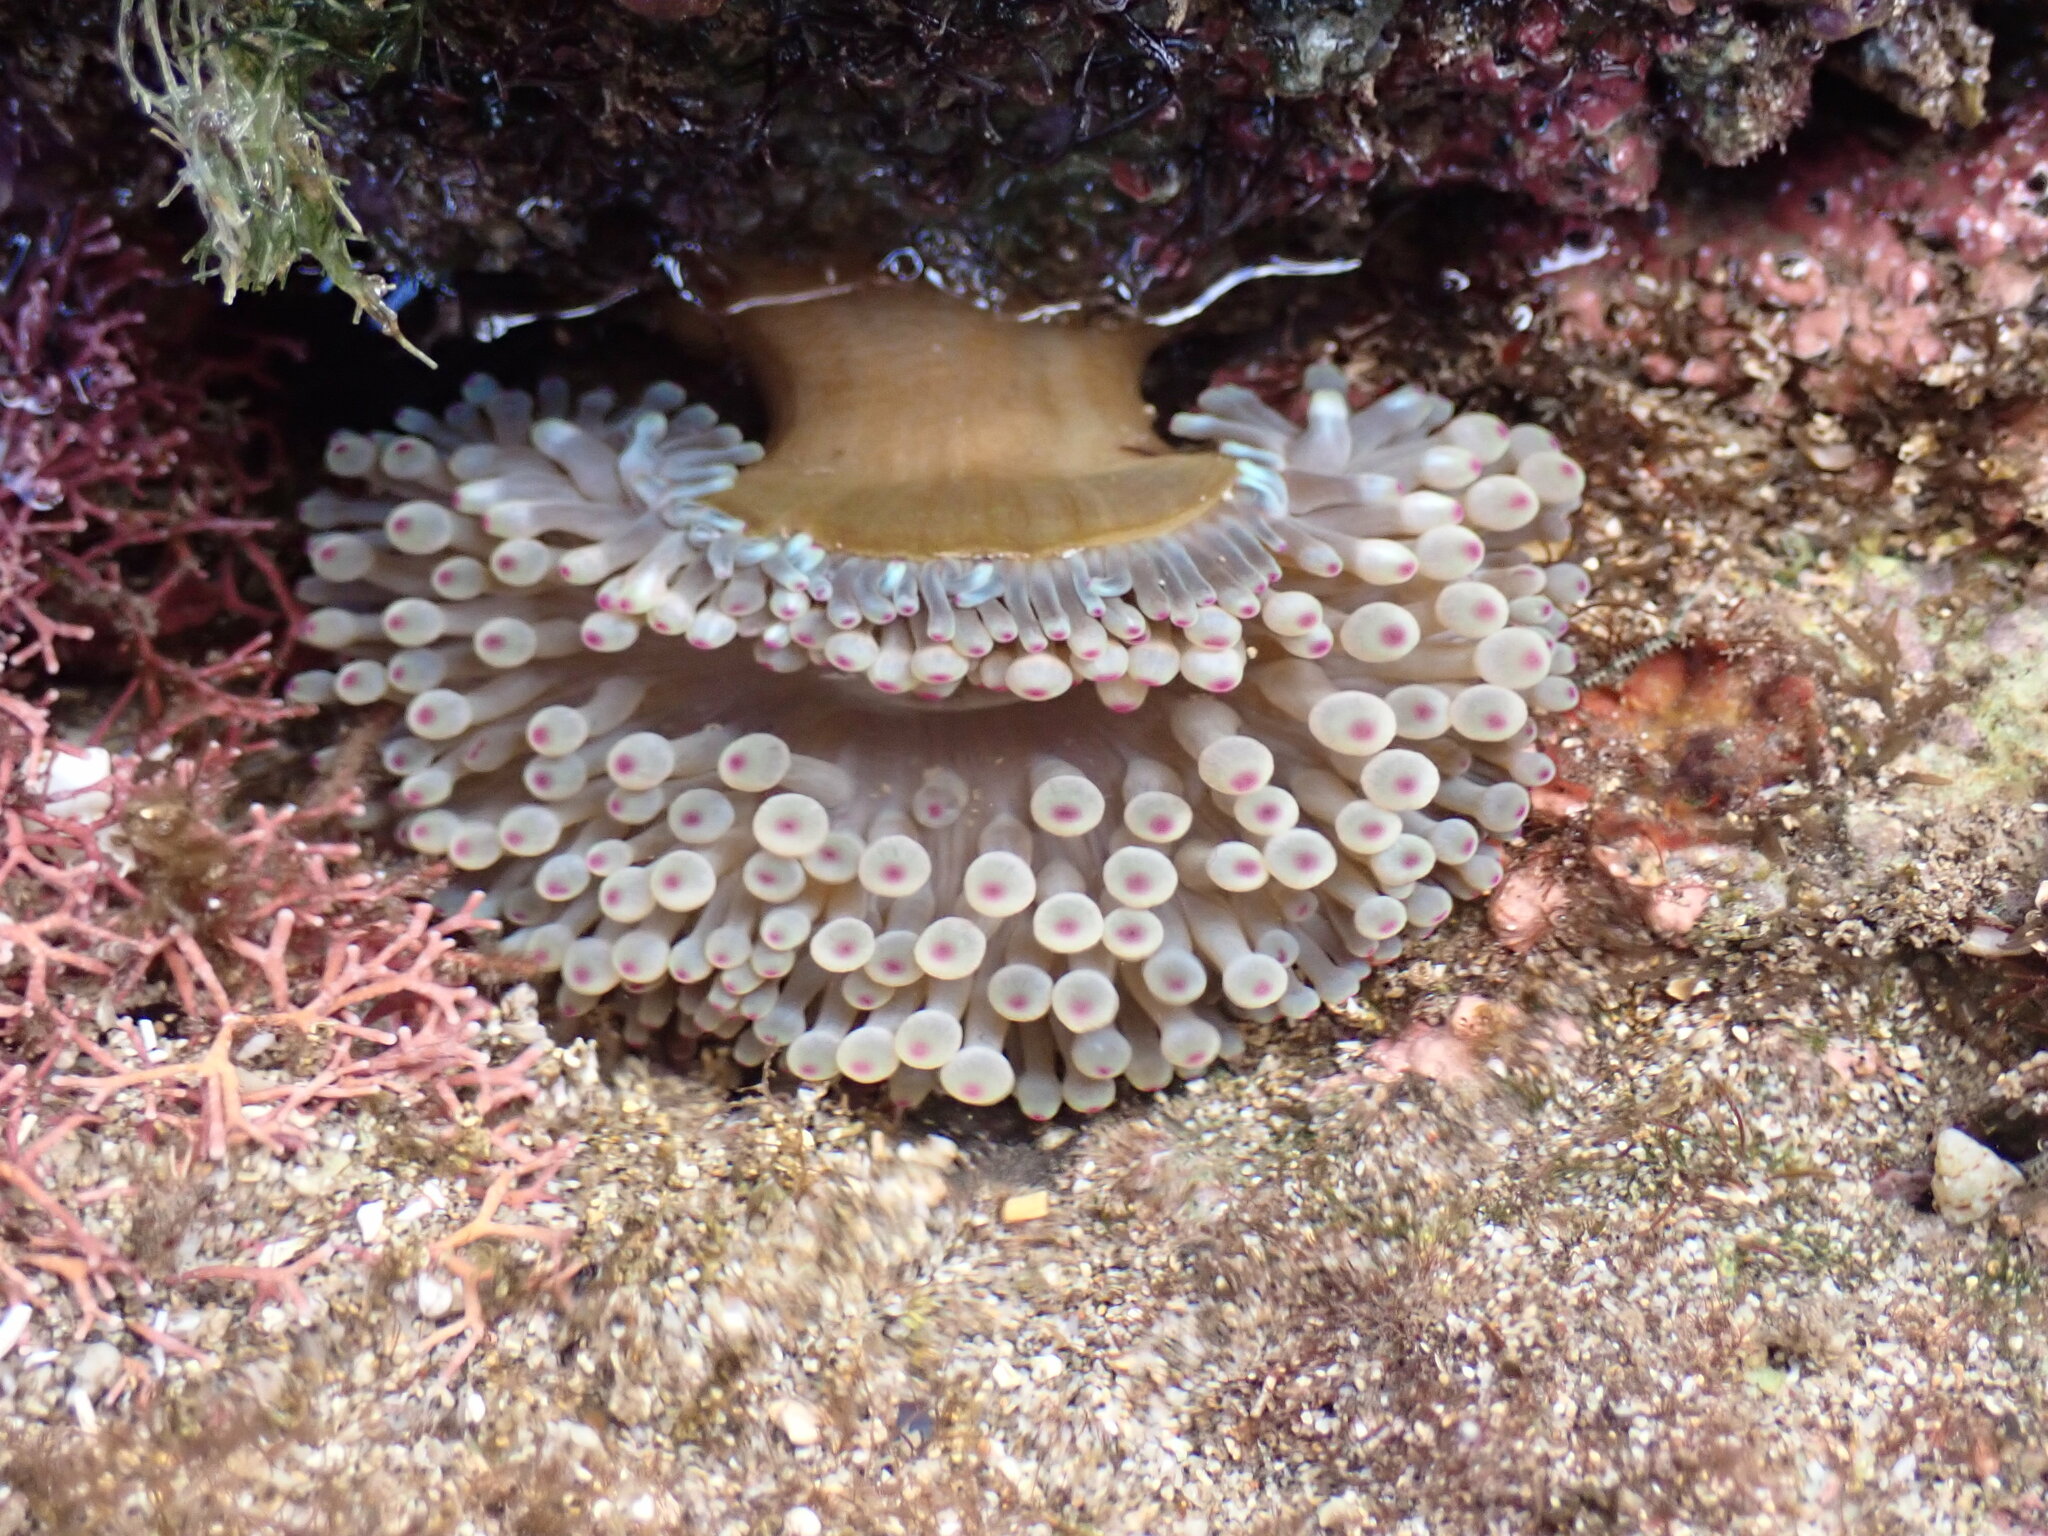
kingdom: Animalia
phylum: Cnidaria
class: Anthozoa
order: Actiniaria
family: Actiniidae
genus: Entacmaea
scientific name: Entacmaea quadricolor
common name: Bulb tentacle sea anemone
